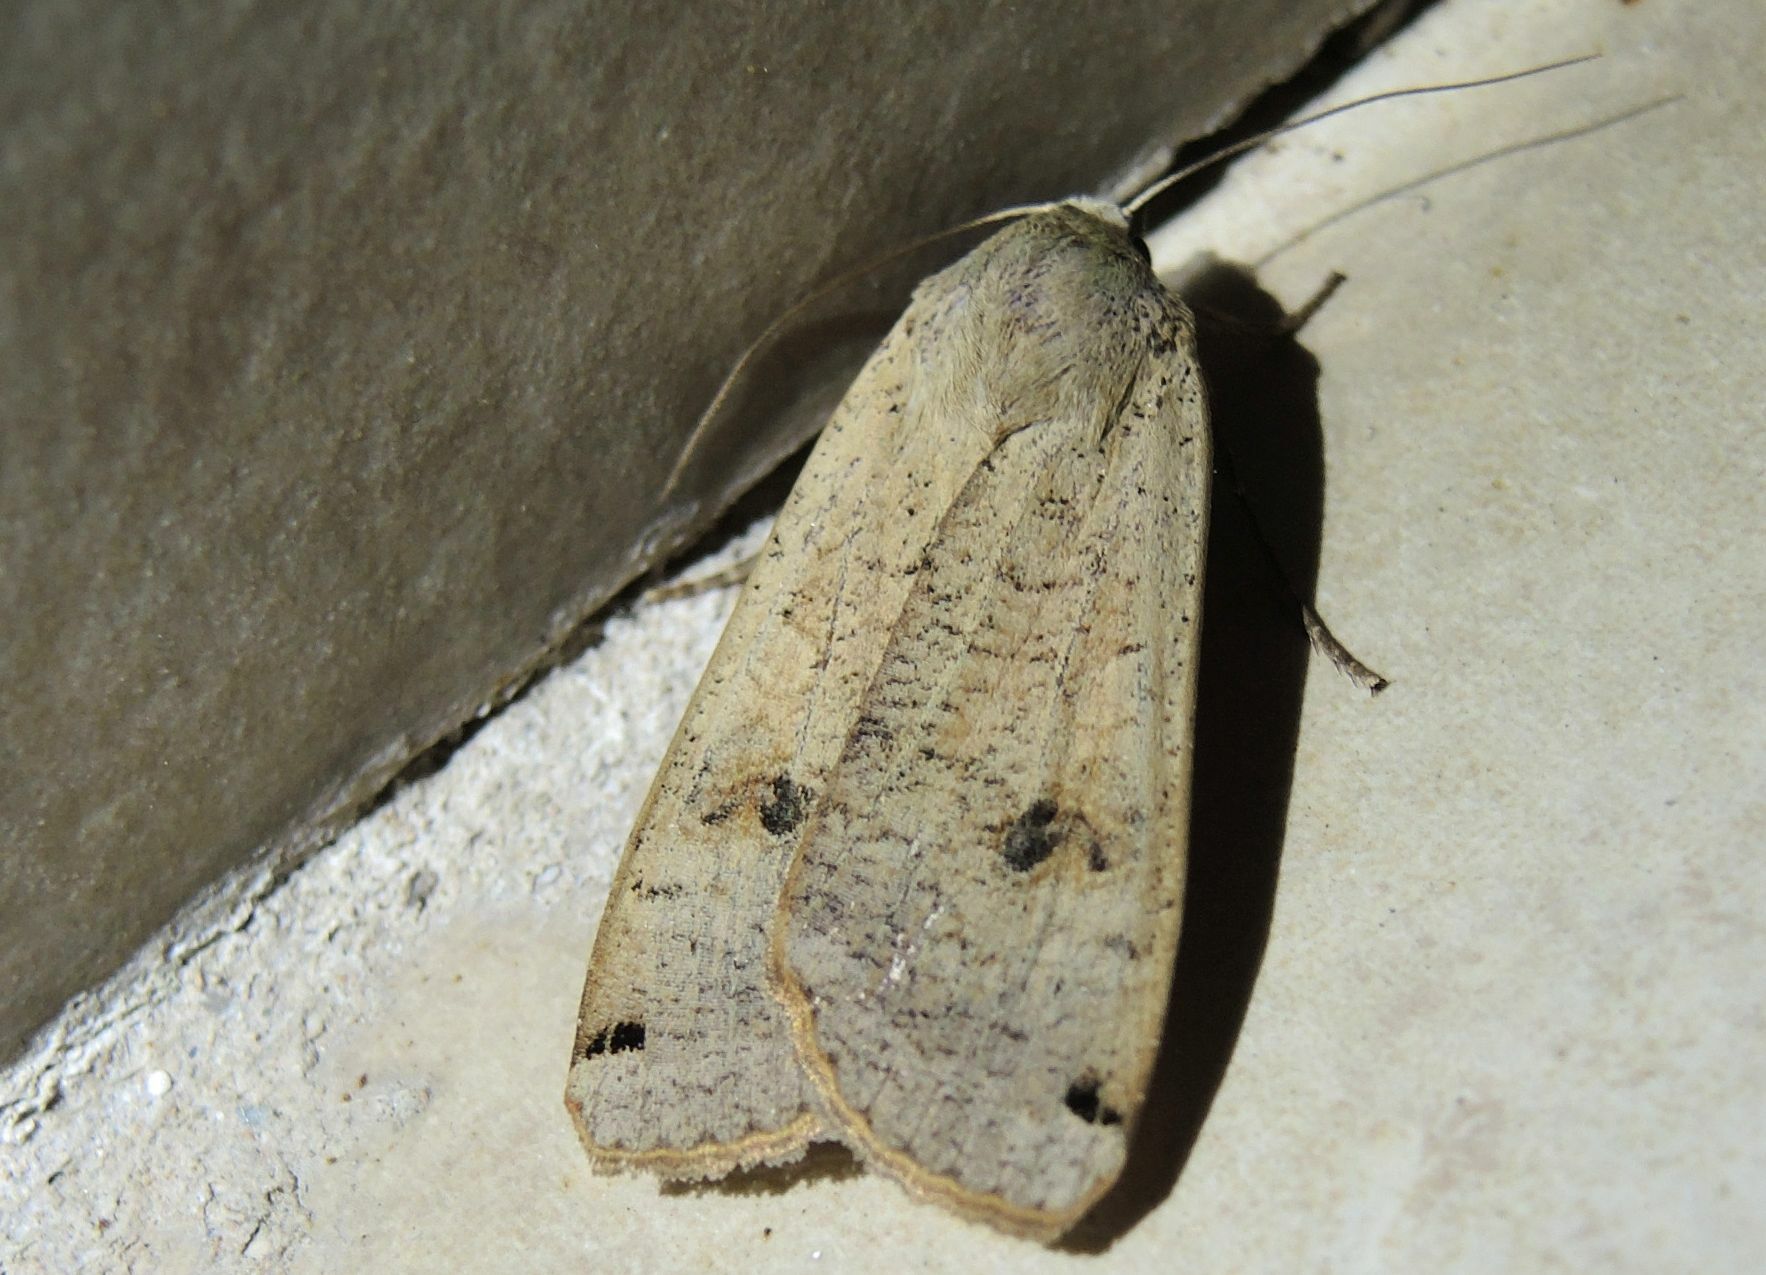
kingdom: Animalia
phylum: Arthropoda
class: Insecta
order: Lepidoptera
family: Noctuidae
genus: Noctua
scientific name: Noctua pronuba
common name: Large yellow underwing
